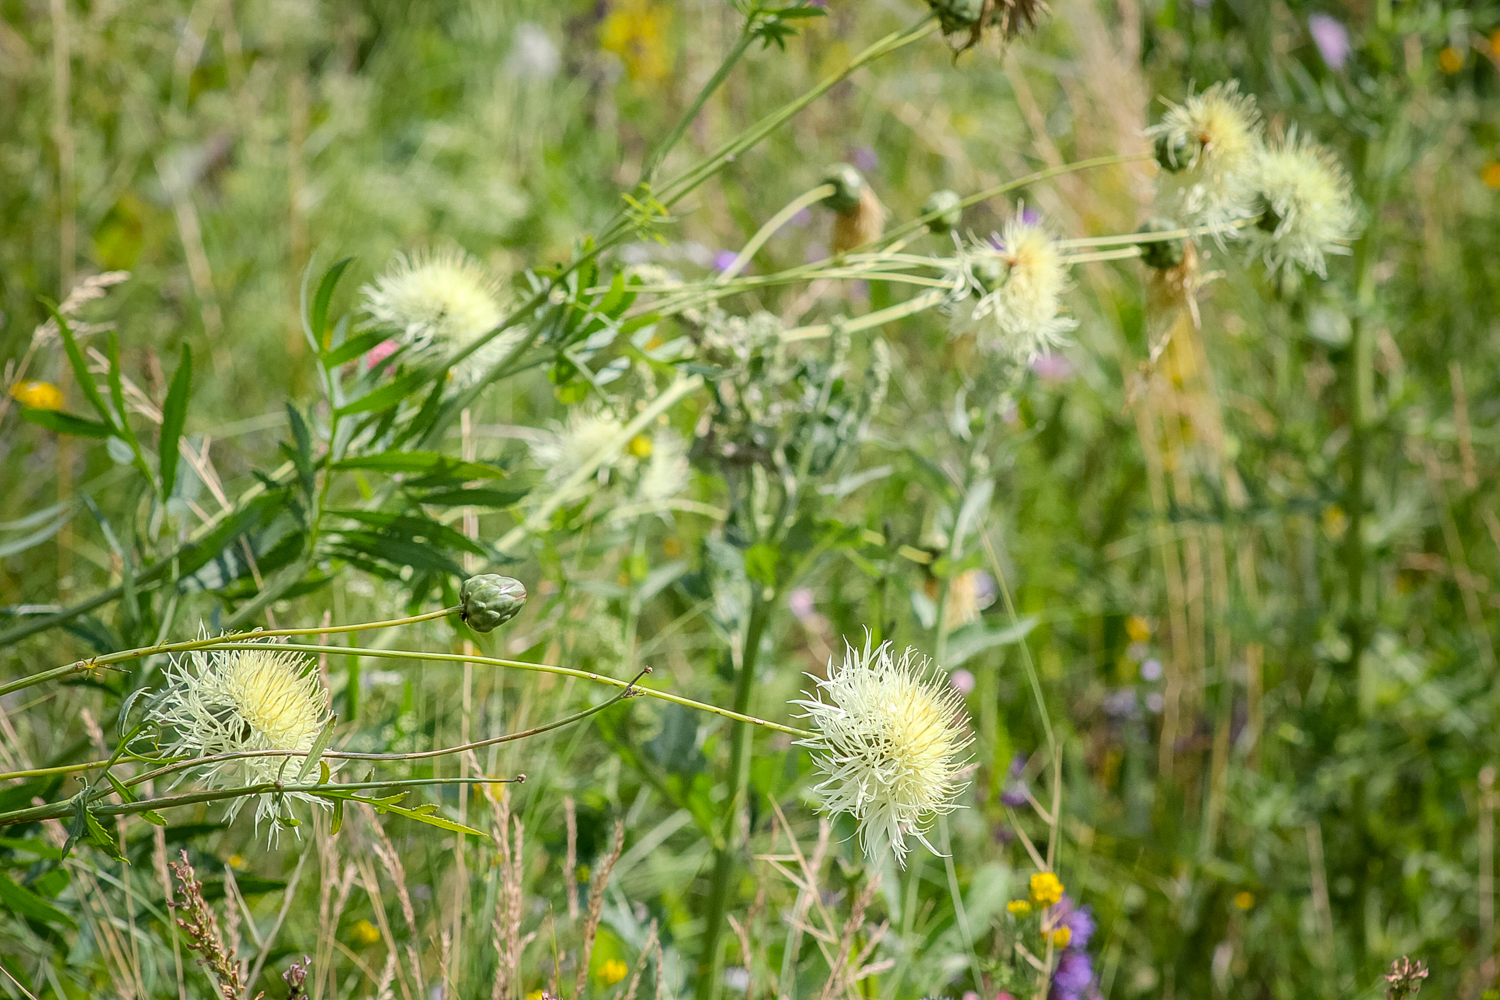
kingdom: Plantae
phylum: Tracheophyta
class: Magnoliopsida
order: Asterales
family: Asteraceae
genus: Rhaponticoides
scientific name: Rhaponticoides ruthenica
